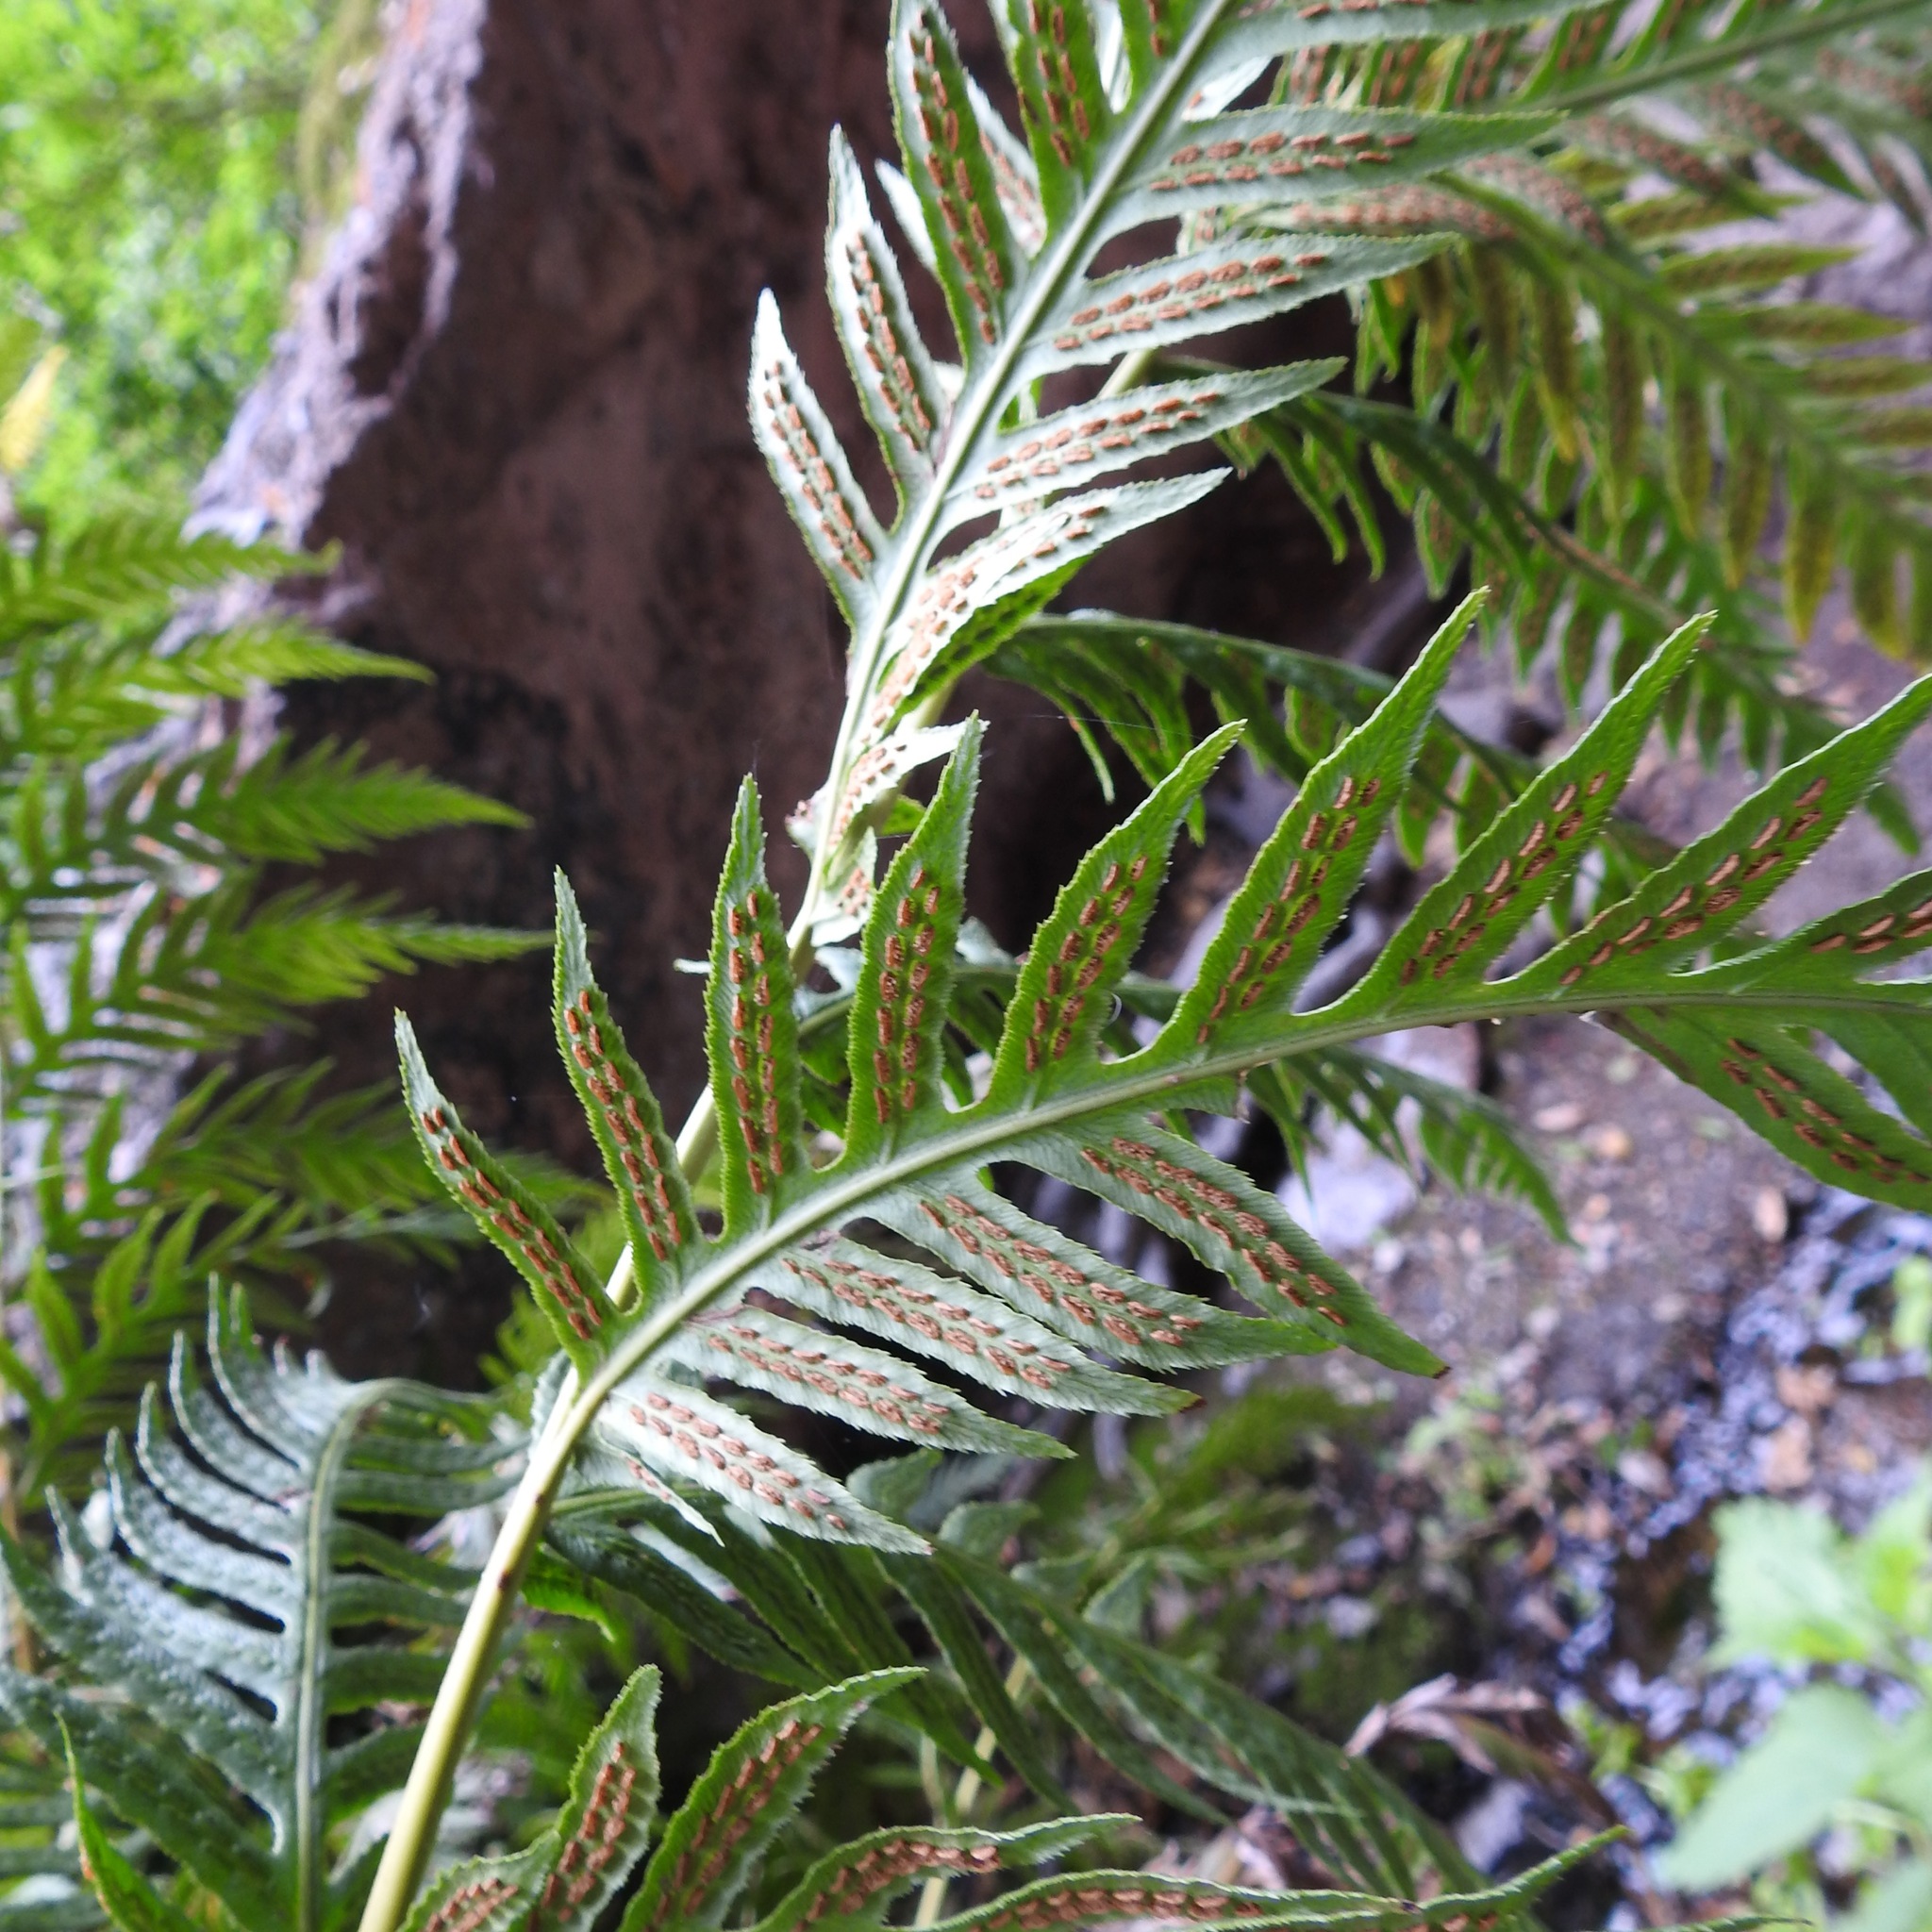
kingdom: Plantae
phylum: Tracheophyta
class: Polypodiopsida
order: Polypodiales
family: Blechnaceae
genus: Woodwardia
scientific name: Woodwardia fimbriata
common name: Giant chain fern
